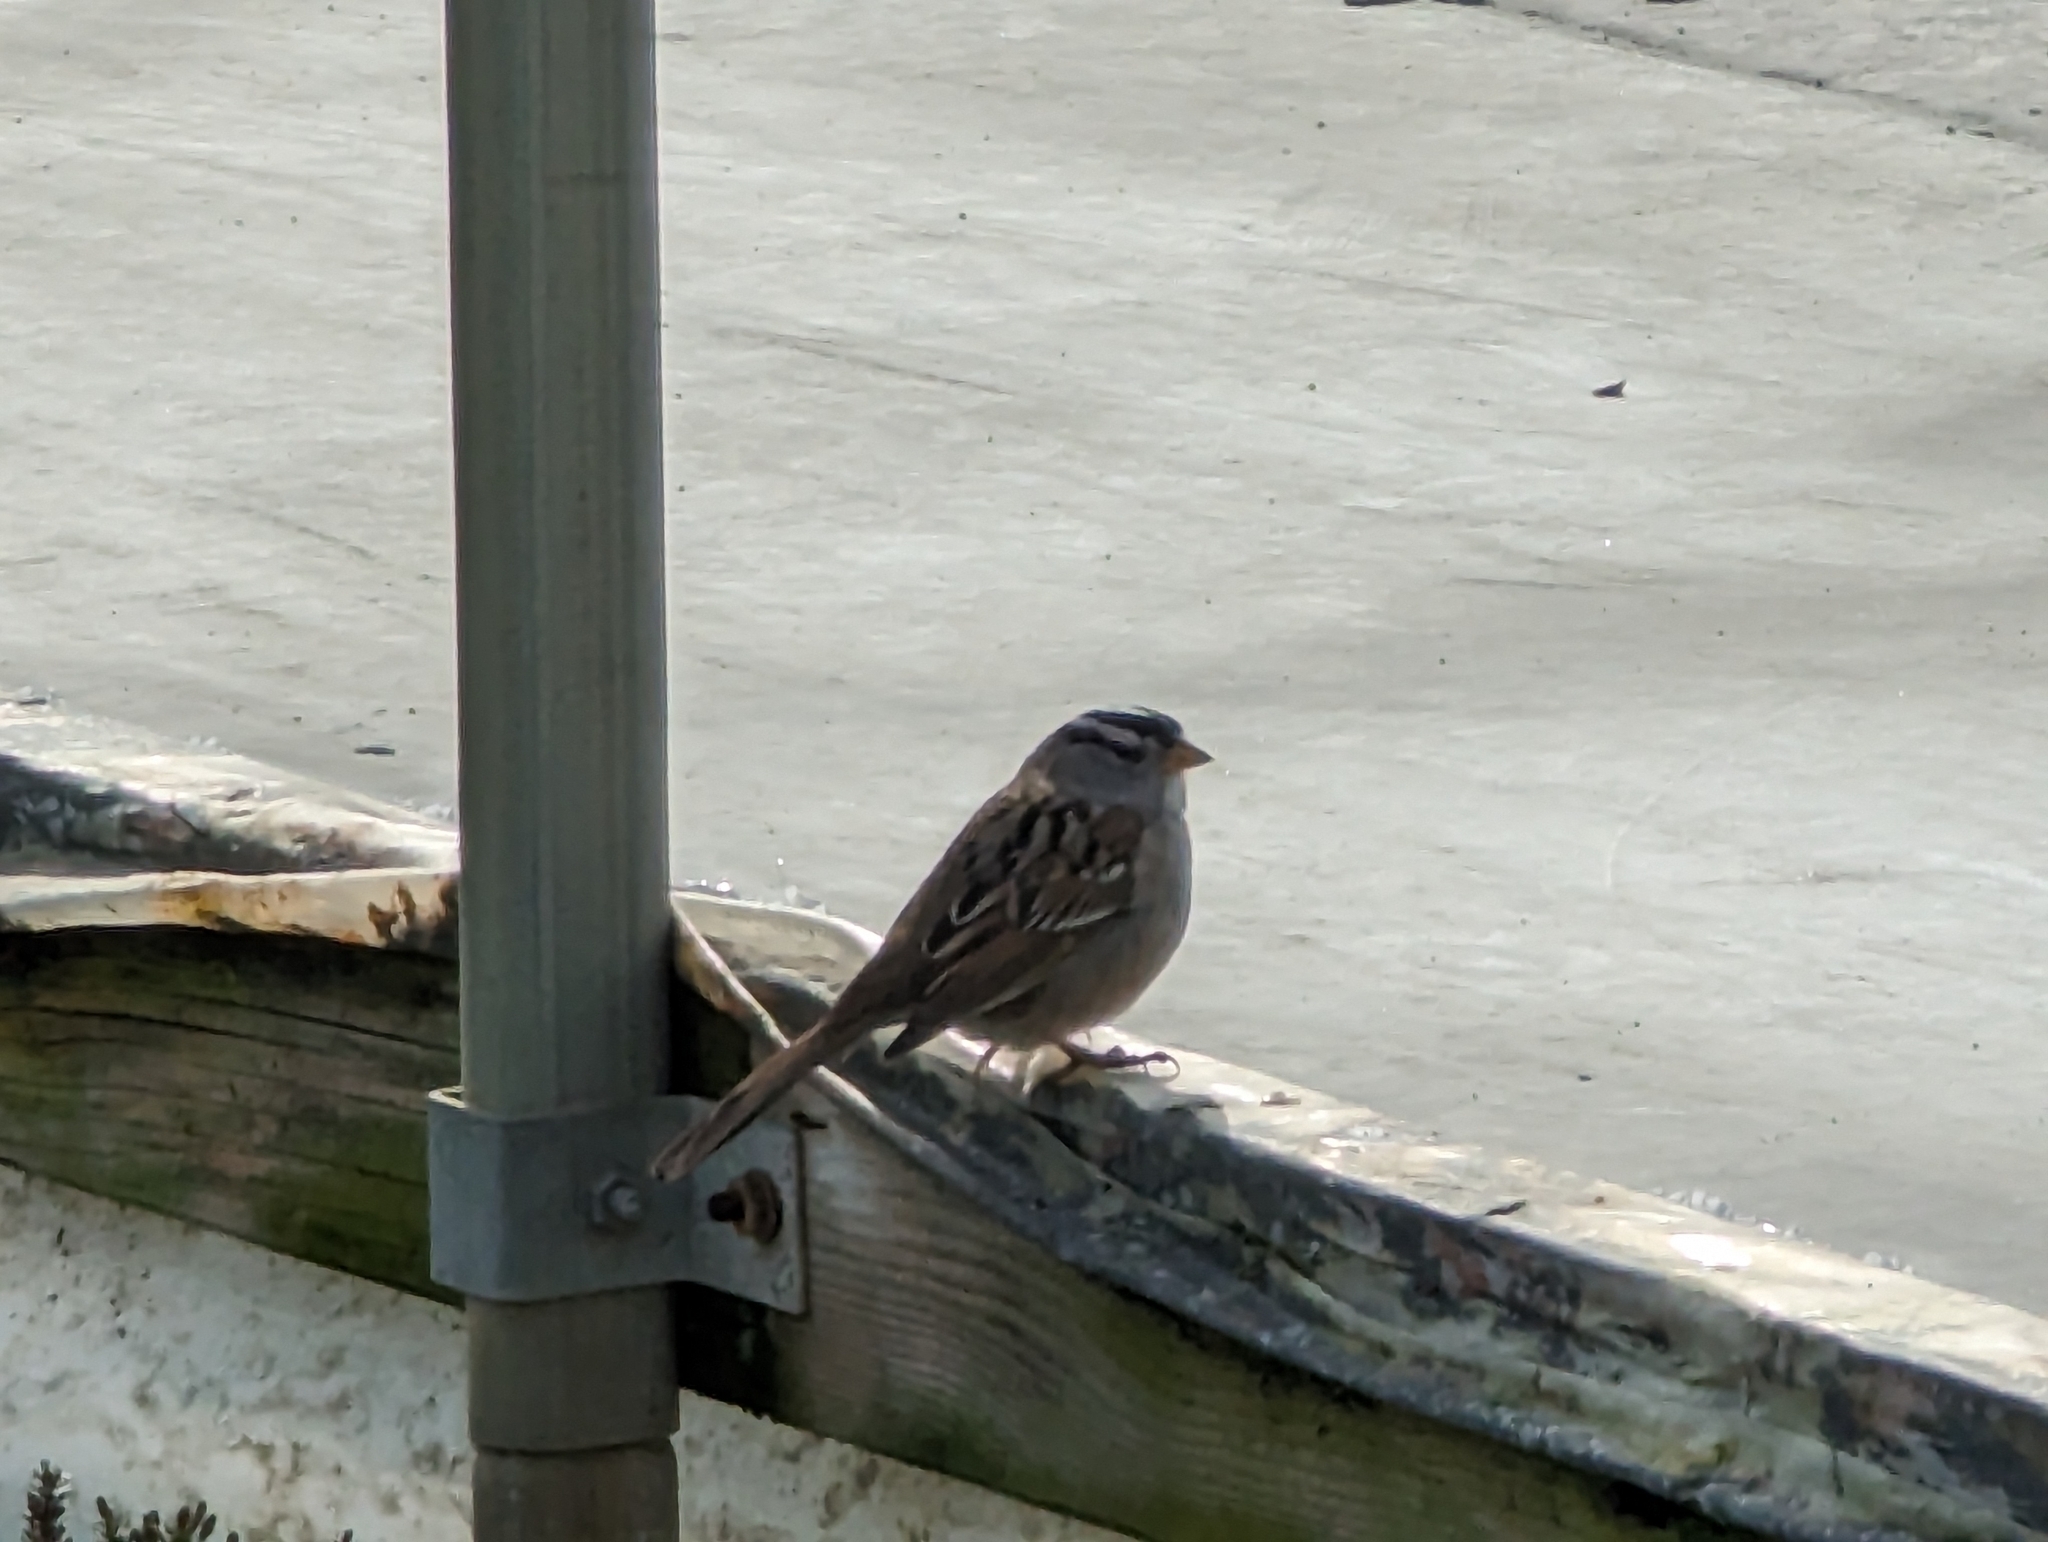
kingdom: Animalia
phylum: Chordata
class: Aves
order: Passeriformes
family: Passerellidae
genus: Zonotrichia
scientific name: Zonotrichia leucophrys
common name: White-crowned sparrow
